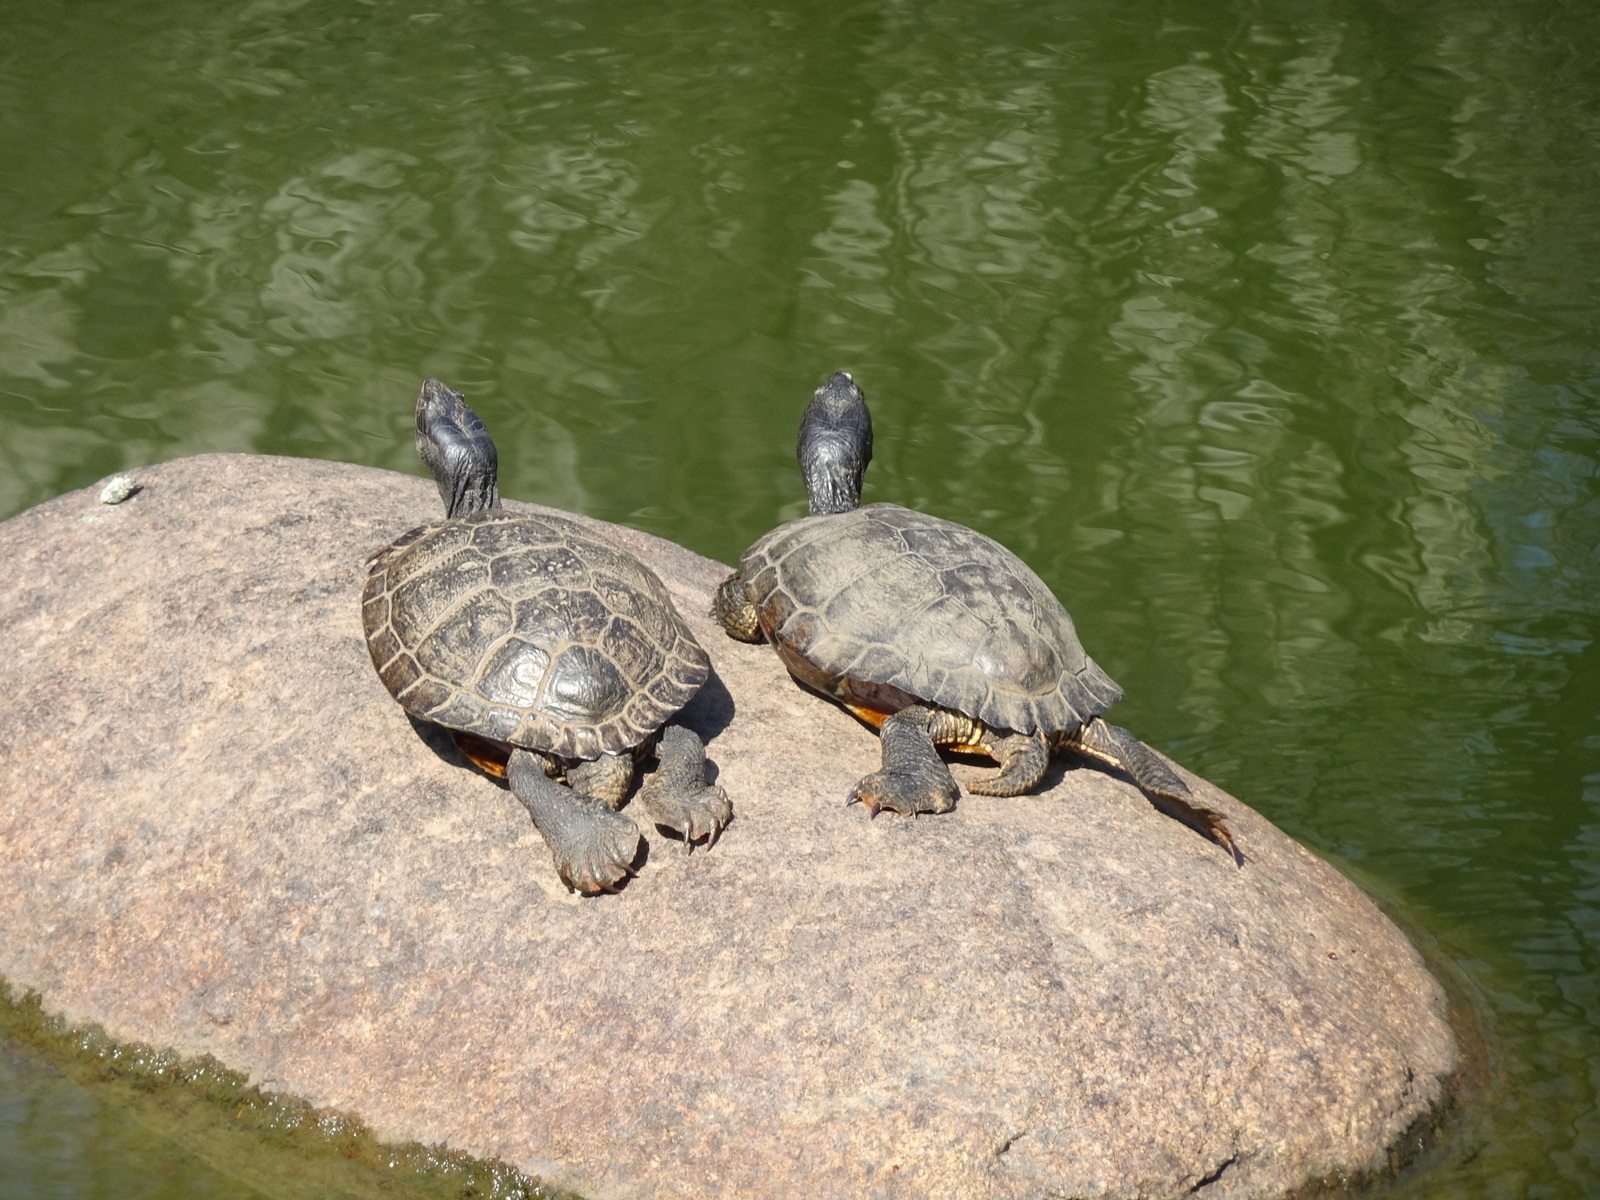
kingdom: Animalia
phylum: Chordata
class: Testudines
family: Emydidae
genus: Trachemys
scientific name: Trachemys scripta
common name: Slider
